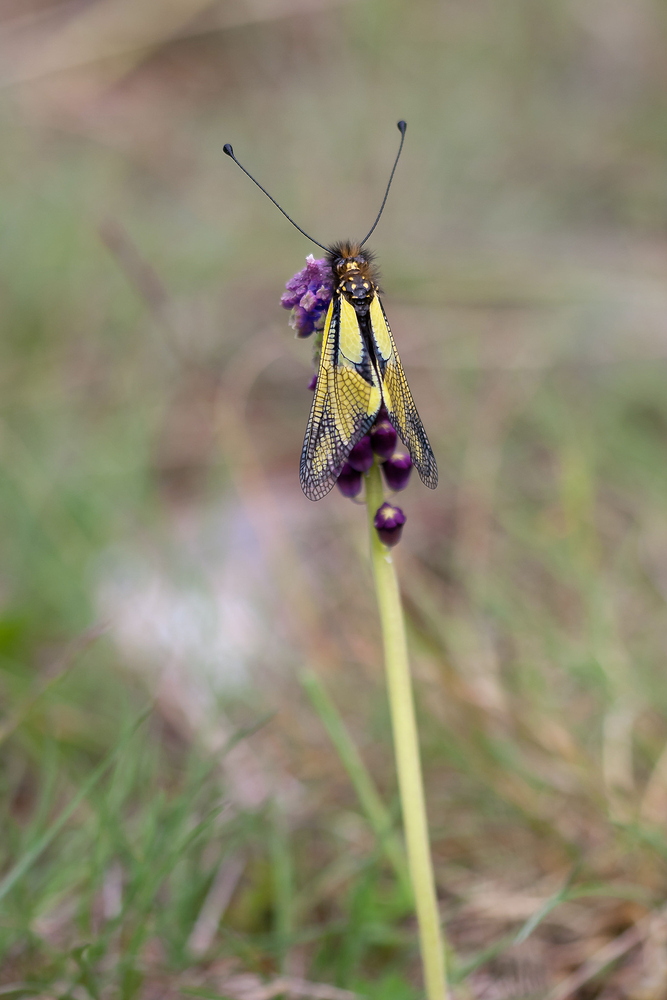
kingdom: Animalia
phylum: Arthropoda
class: Insecta
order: Neuroptera
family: Ascalaphidae
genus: Libelloides
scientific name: Libelloides coccajus
